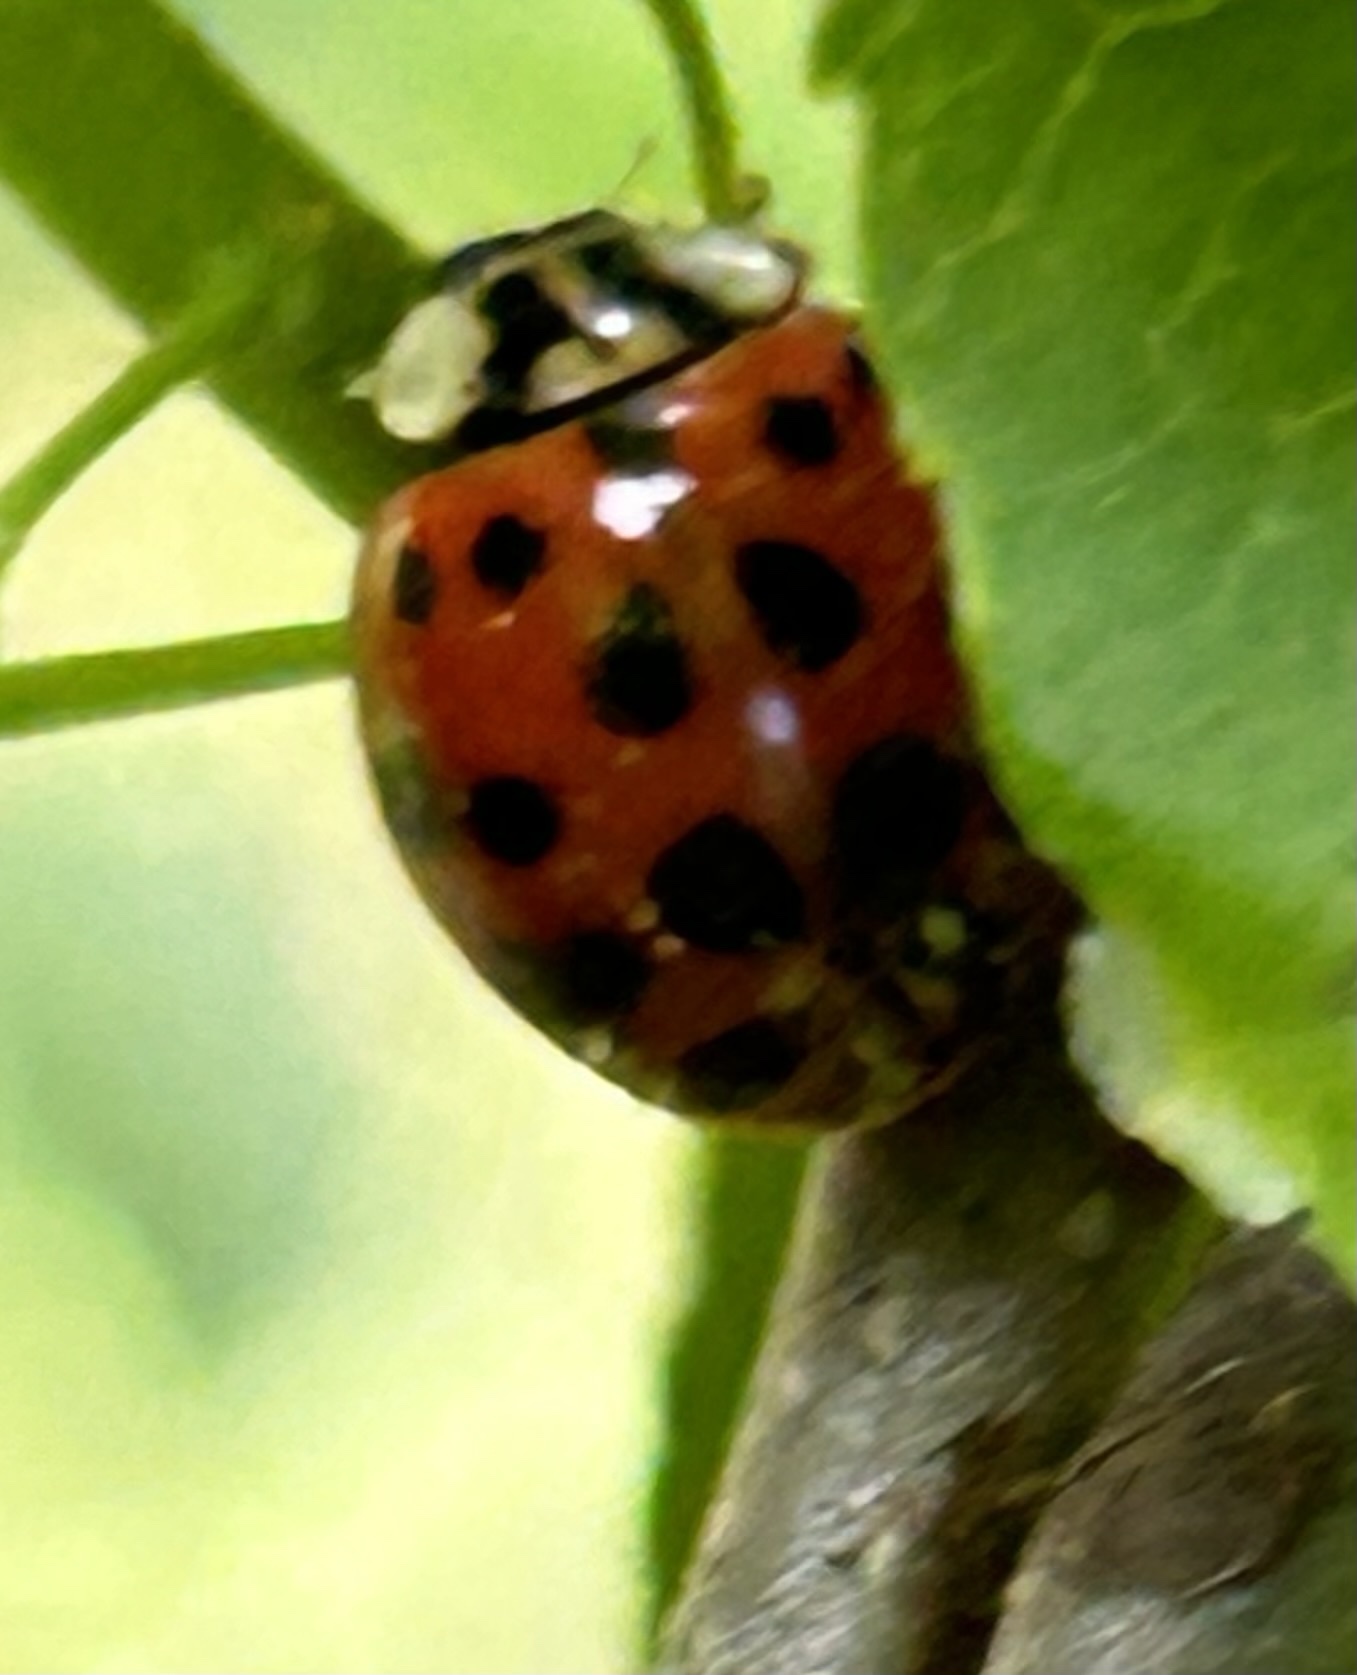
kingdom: Animalia
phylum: Arthropoda
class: Insecta
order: Coleoptera
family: Coccinellidae
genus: Harmonia
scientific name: Harmonia axyridis
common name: Harlequin ladybird
